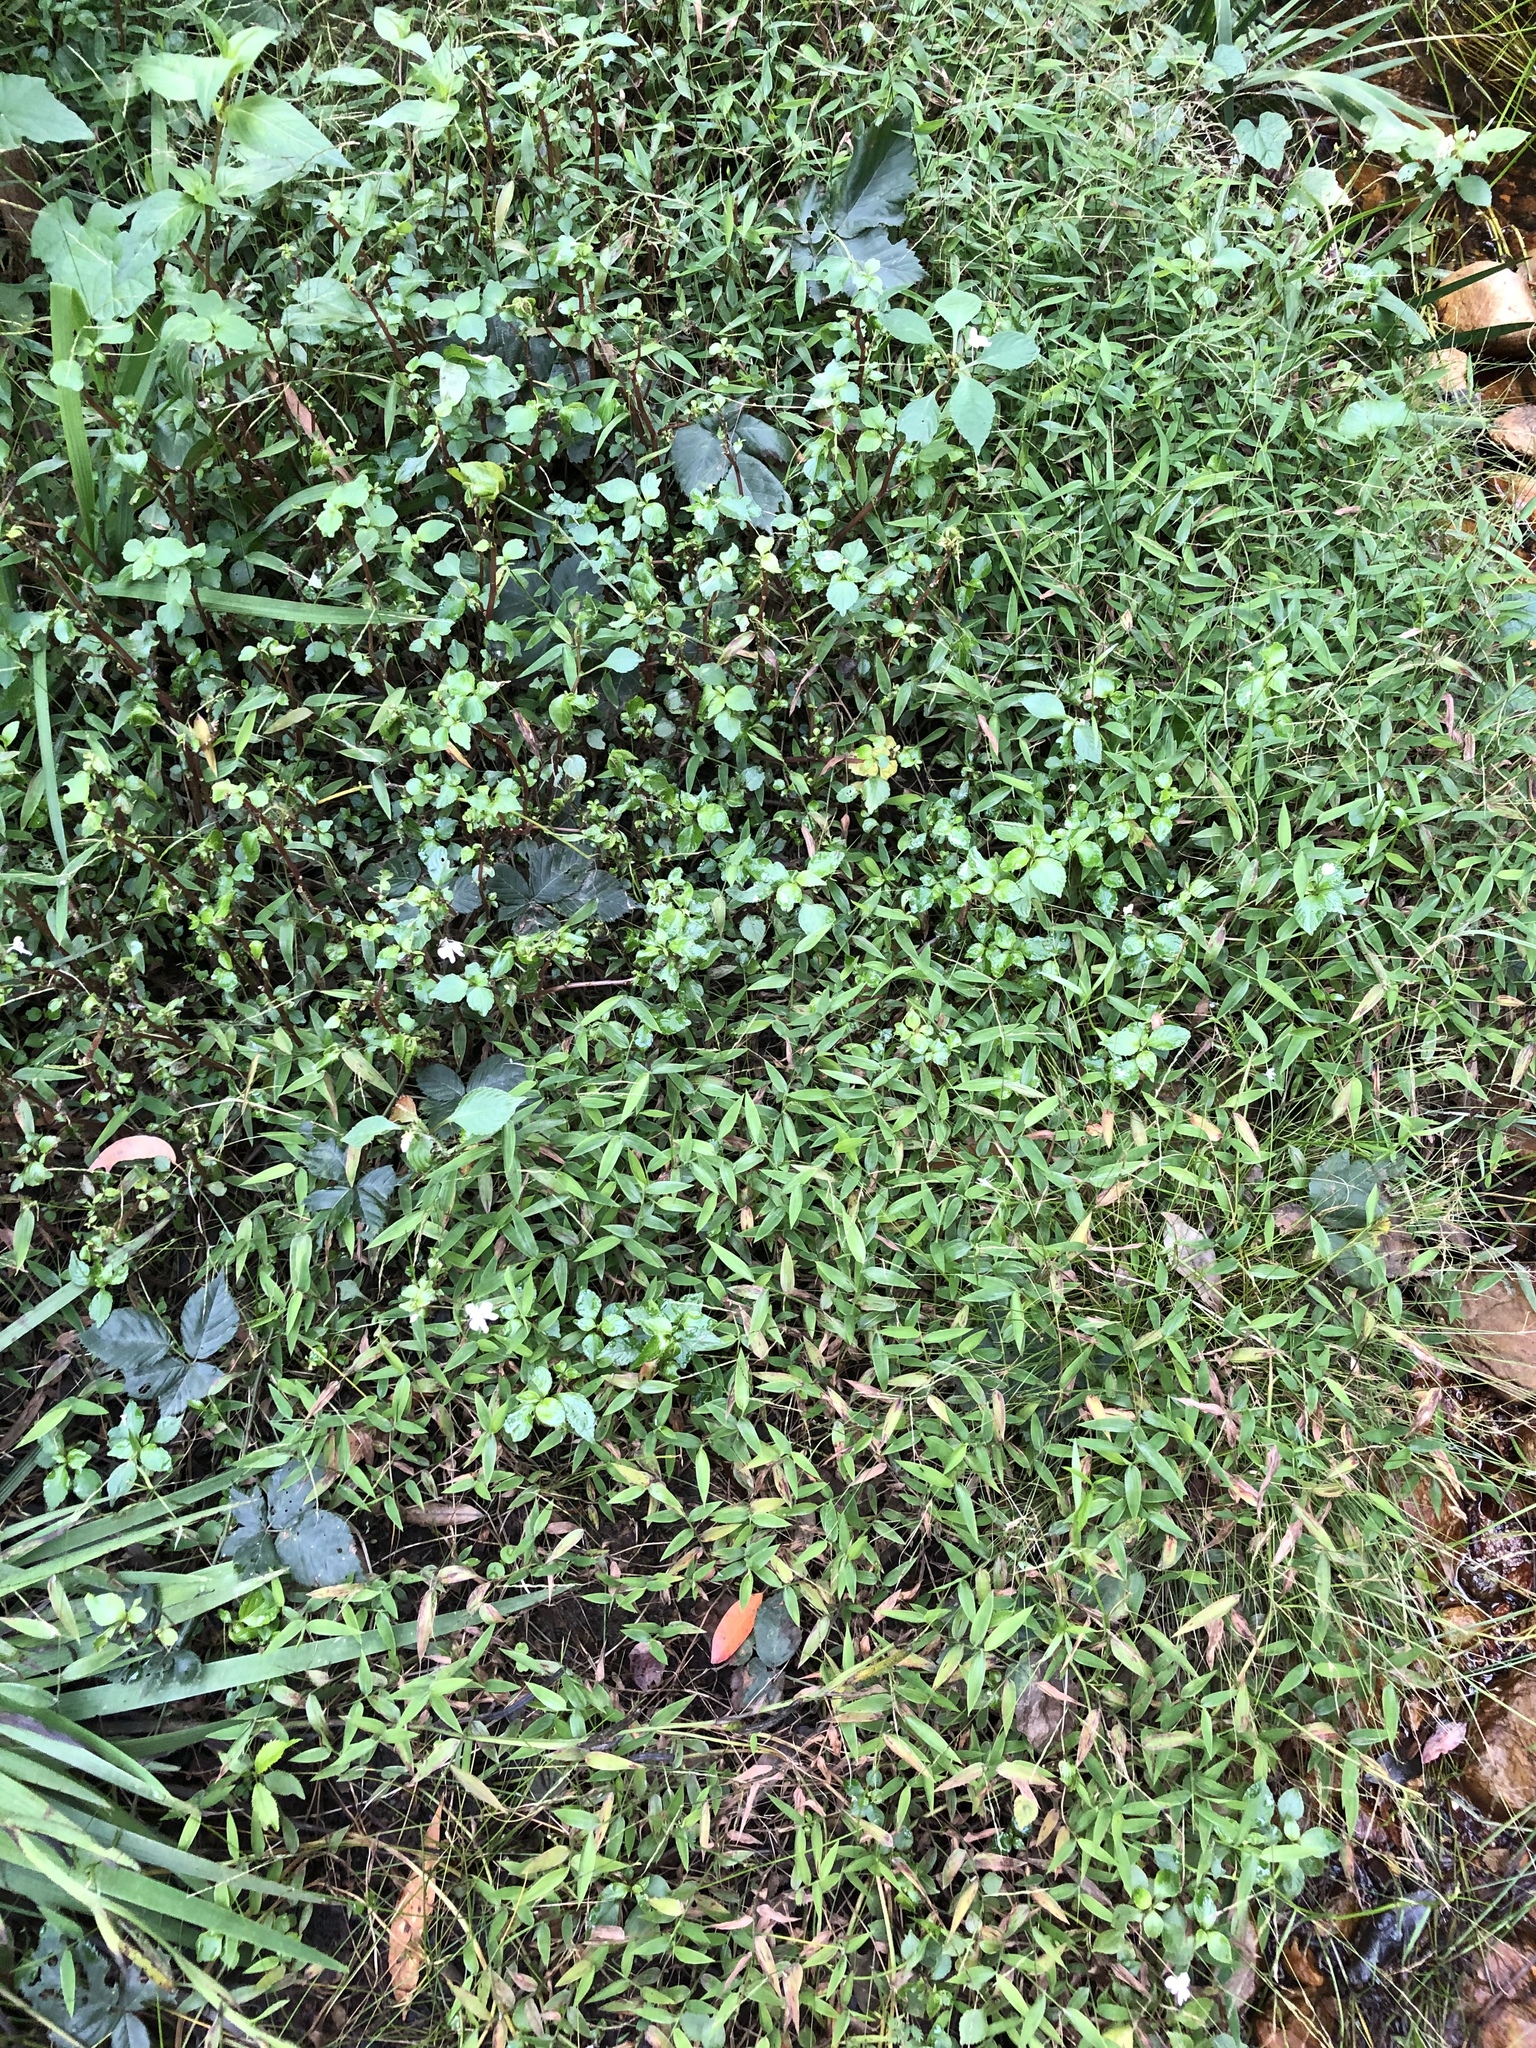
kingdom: Plantae
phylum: Tracheophyta
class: Magnoliopsida
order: Ericales
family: Balsaminaceae
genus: Impatiens
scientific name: Impatiens hochstetteri
